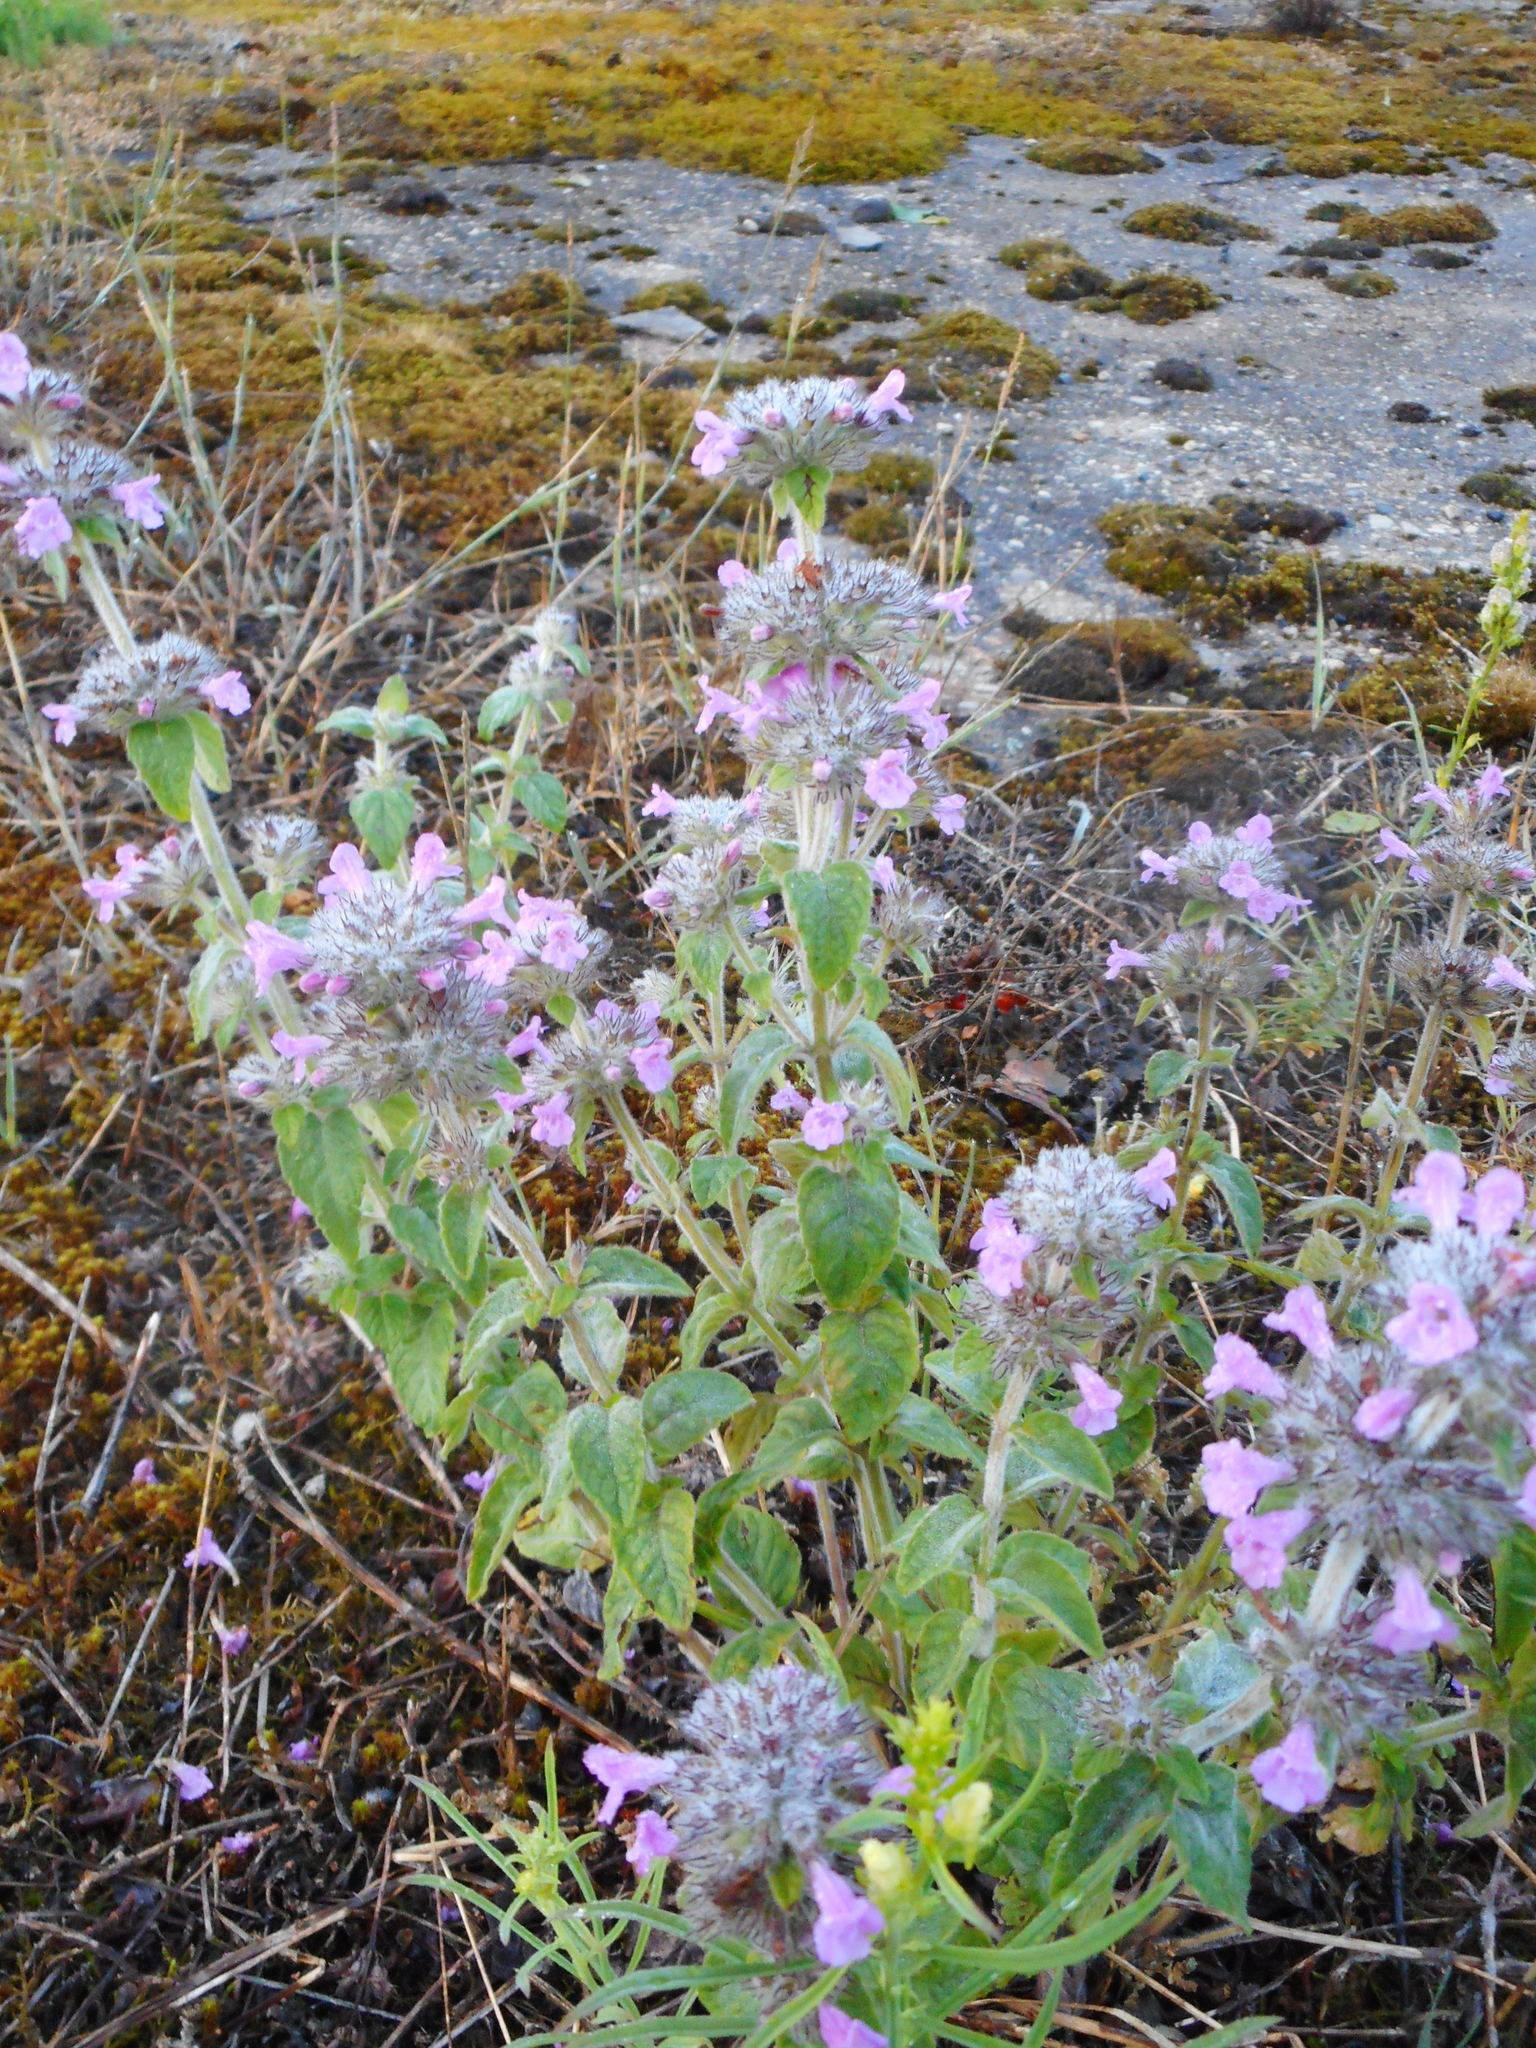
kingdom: Plantae
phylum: Tracheophyta
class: Magnoliopsida
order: Lamiales
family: Lamiaceae
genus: Clinopodium
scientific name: Clinopodium vulgare
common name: Wild basil
